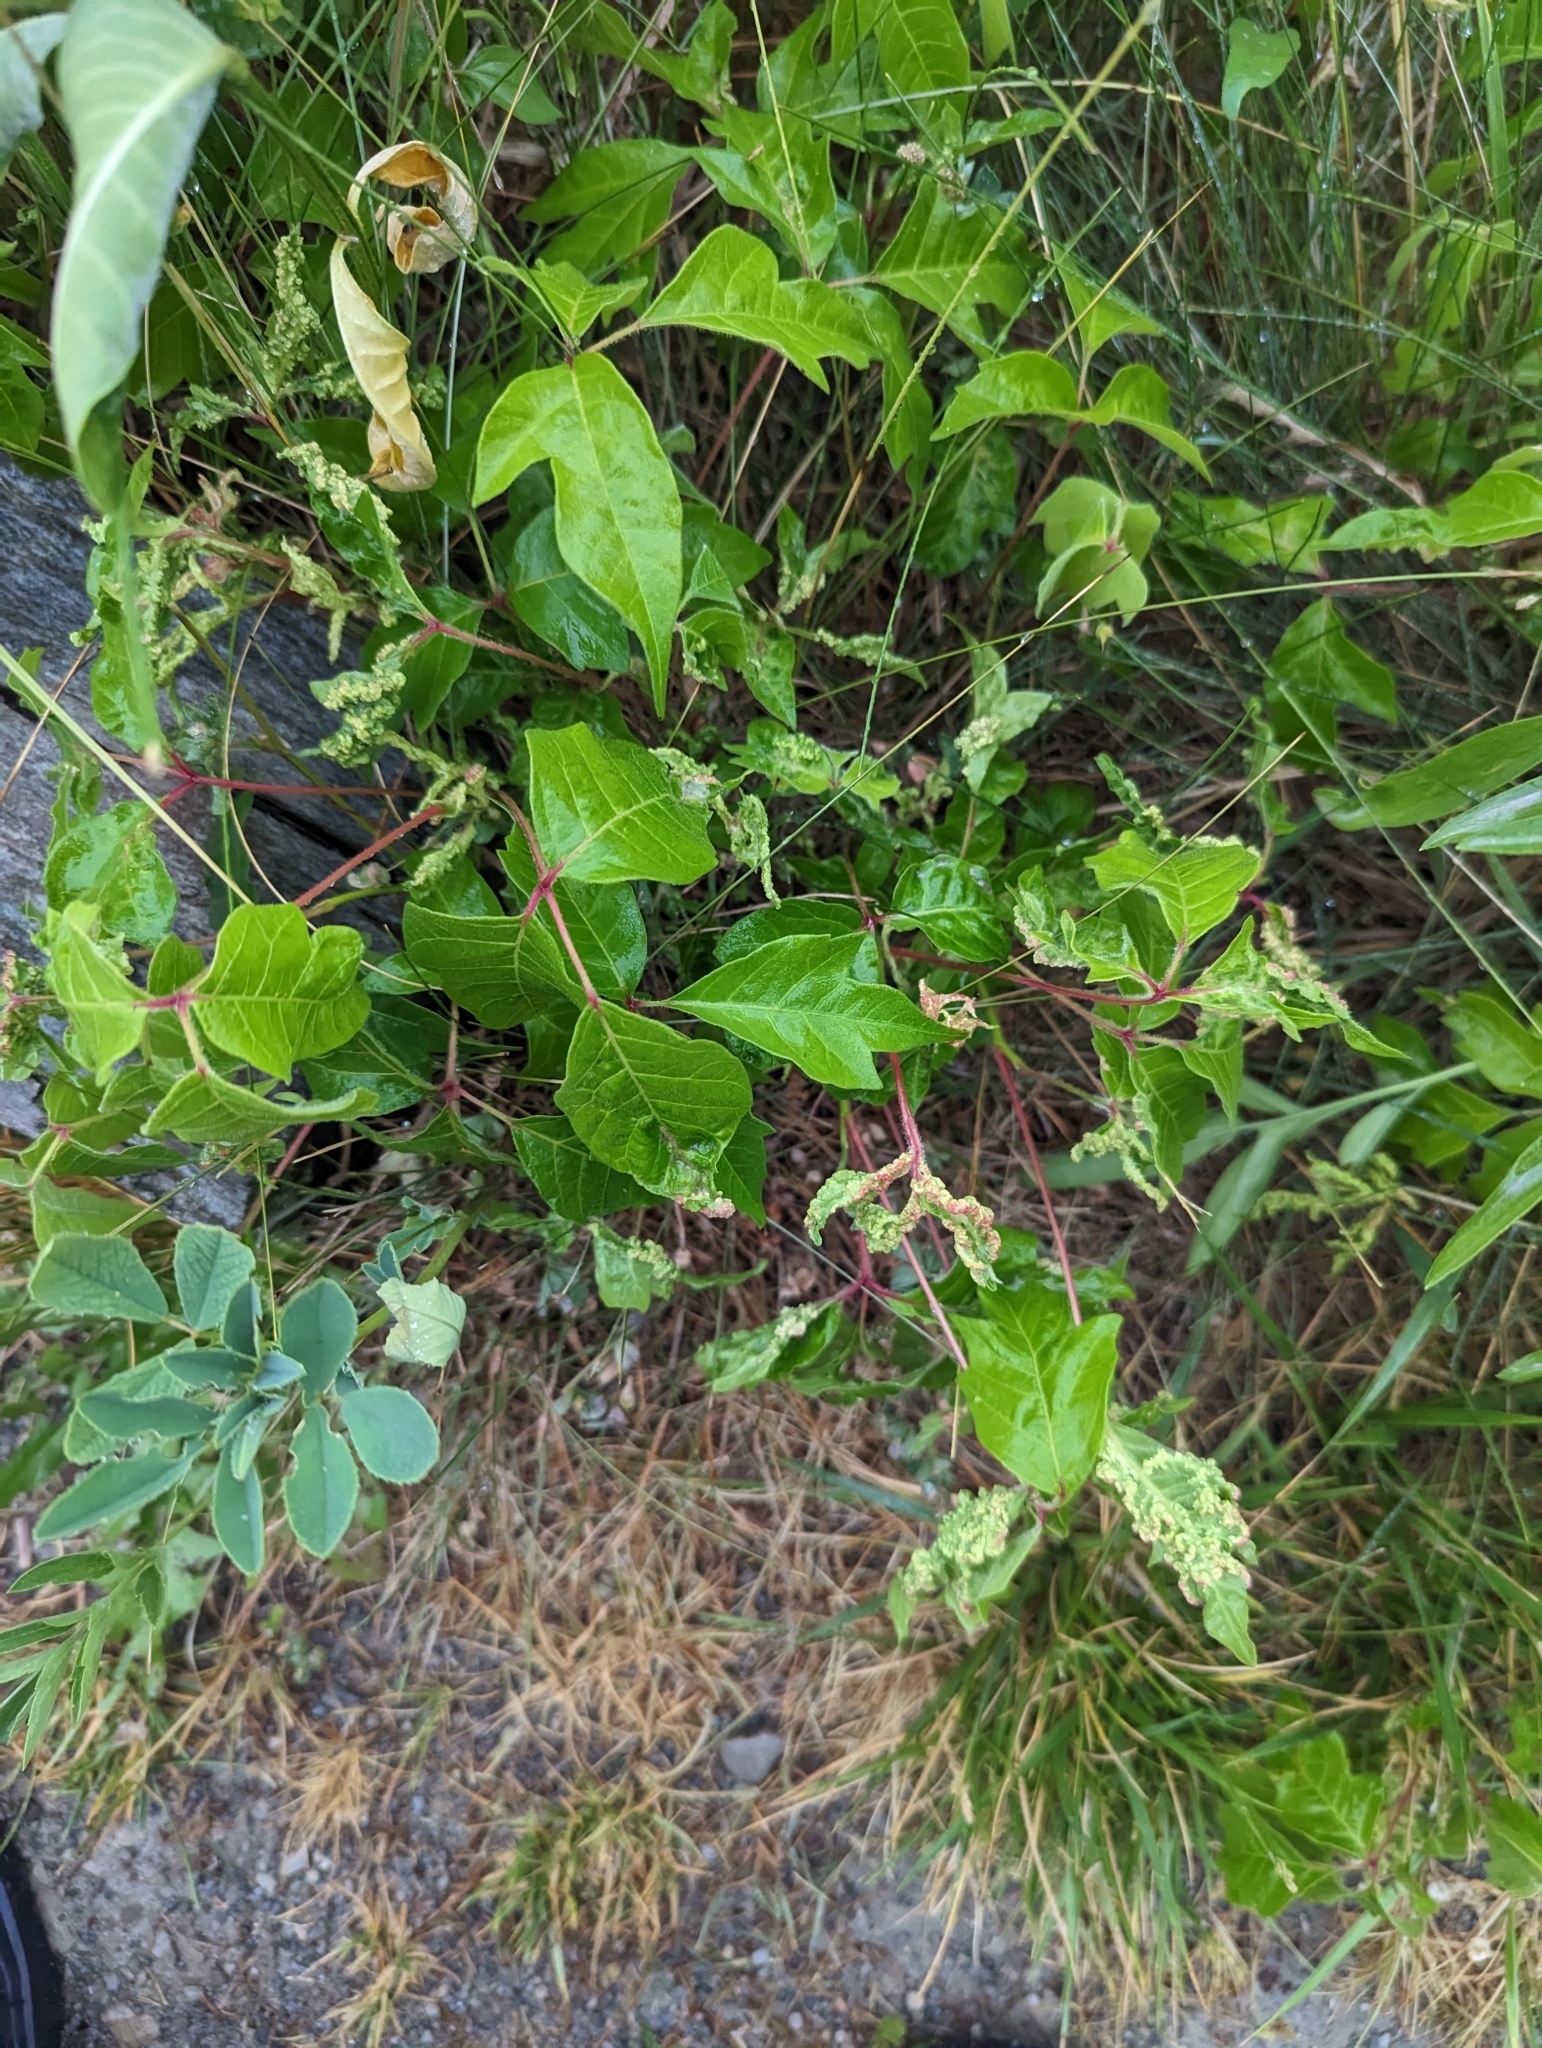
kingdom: Plantae
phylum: Tracheophyta
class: Magnoliopsida
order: Sapindales
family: Anacardiaceae
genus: Toxicodendron
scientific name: Toxicodendron radicans
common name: Poison ivy
